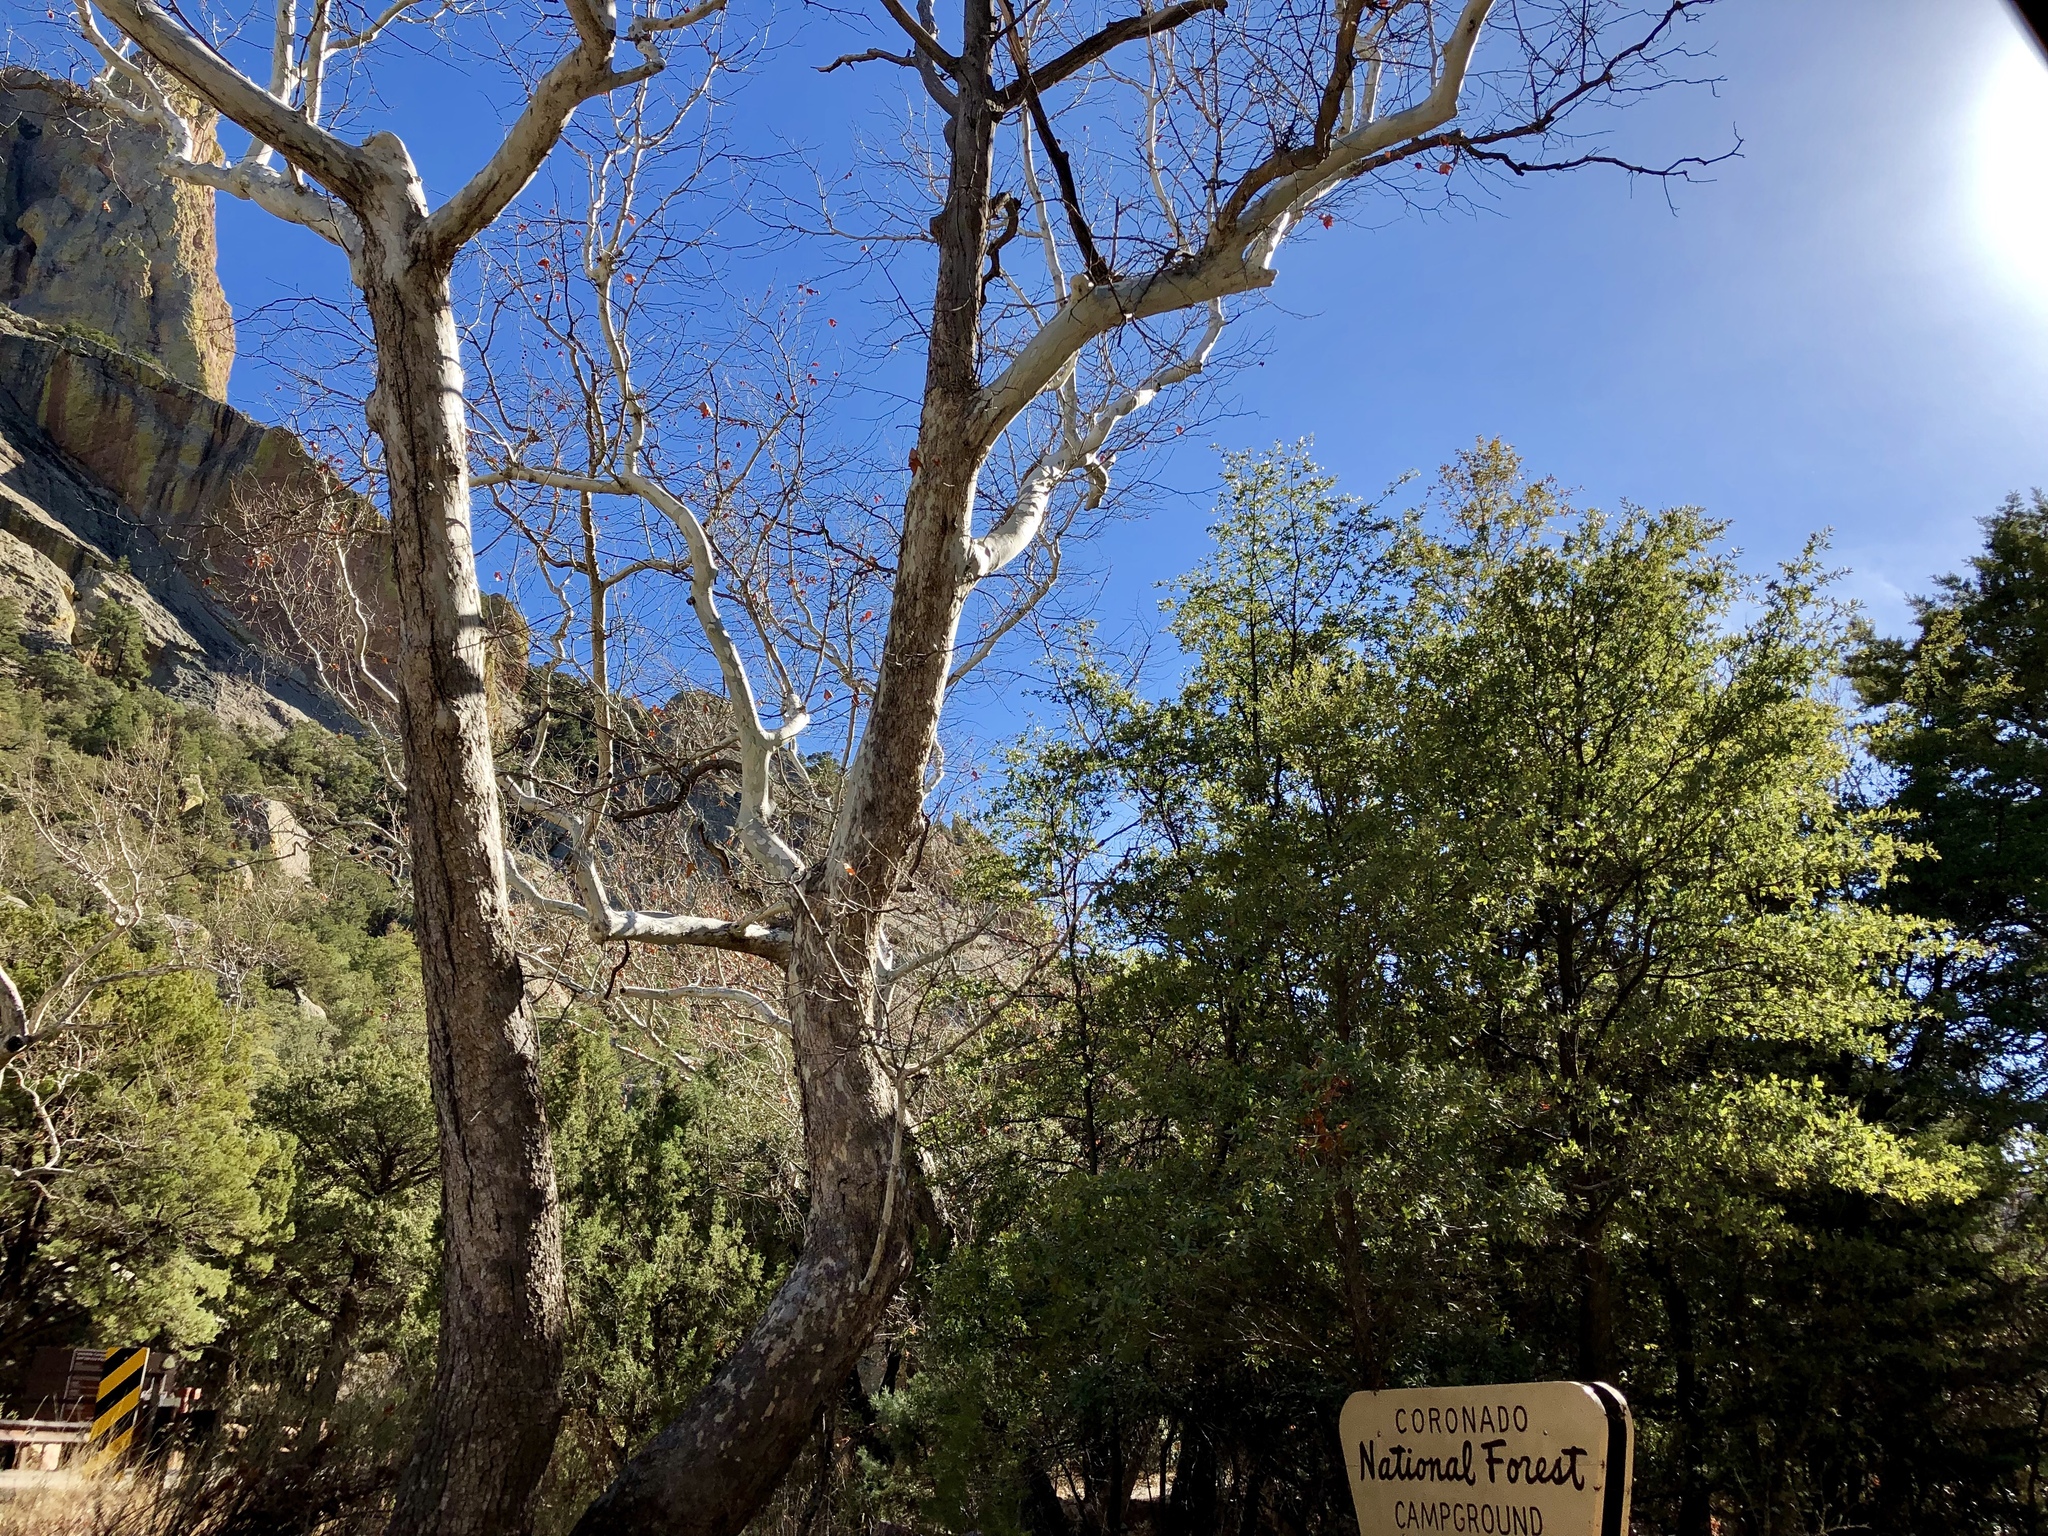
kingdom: Plantae
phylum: Tracheophyta
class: Magnoliopsida
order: Proteales
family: Platanaceae
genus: Platanus
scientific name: Platanus wrightii
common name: Arizona sycamore
